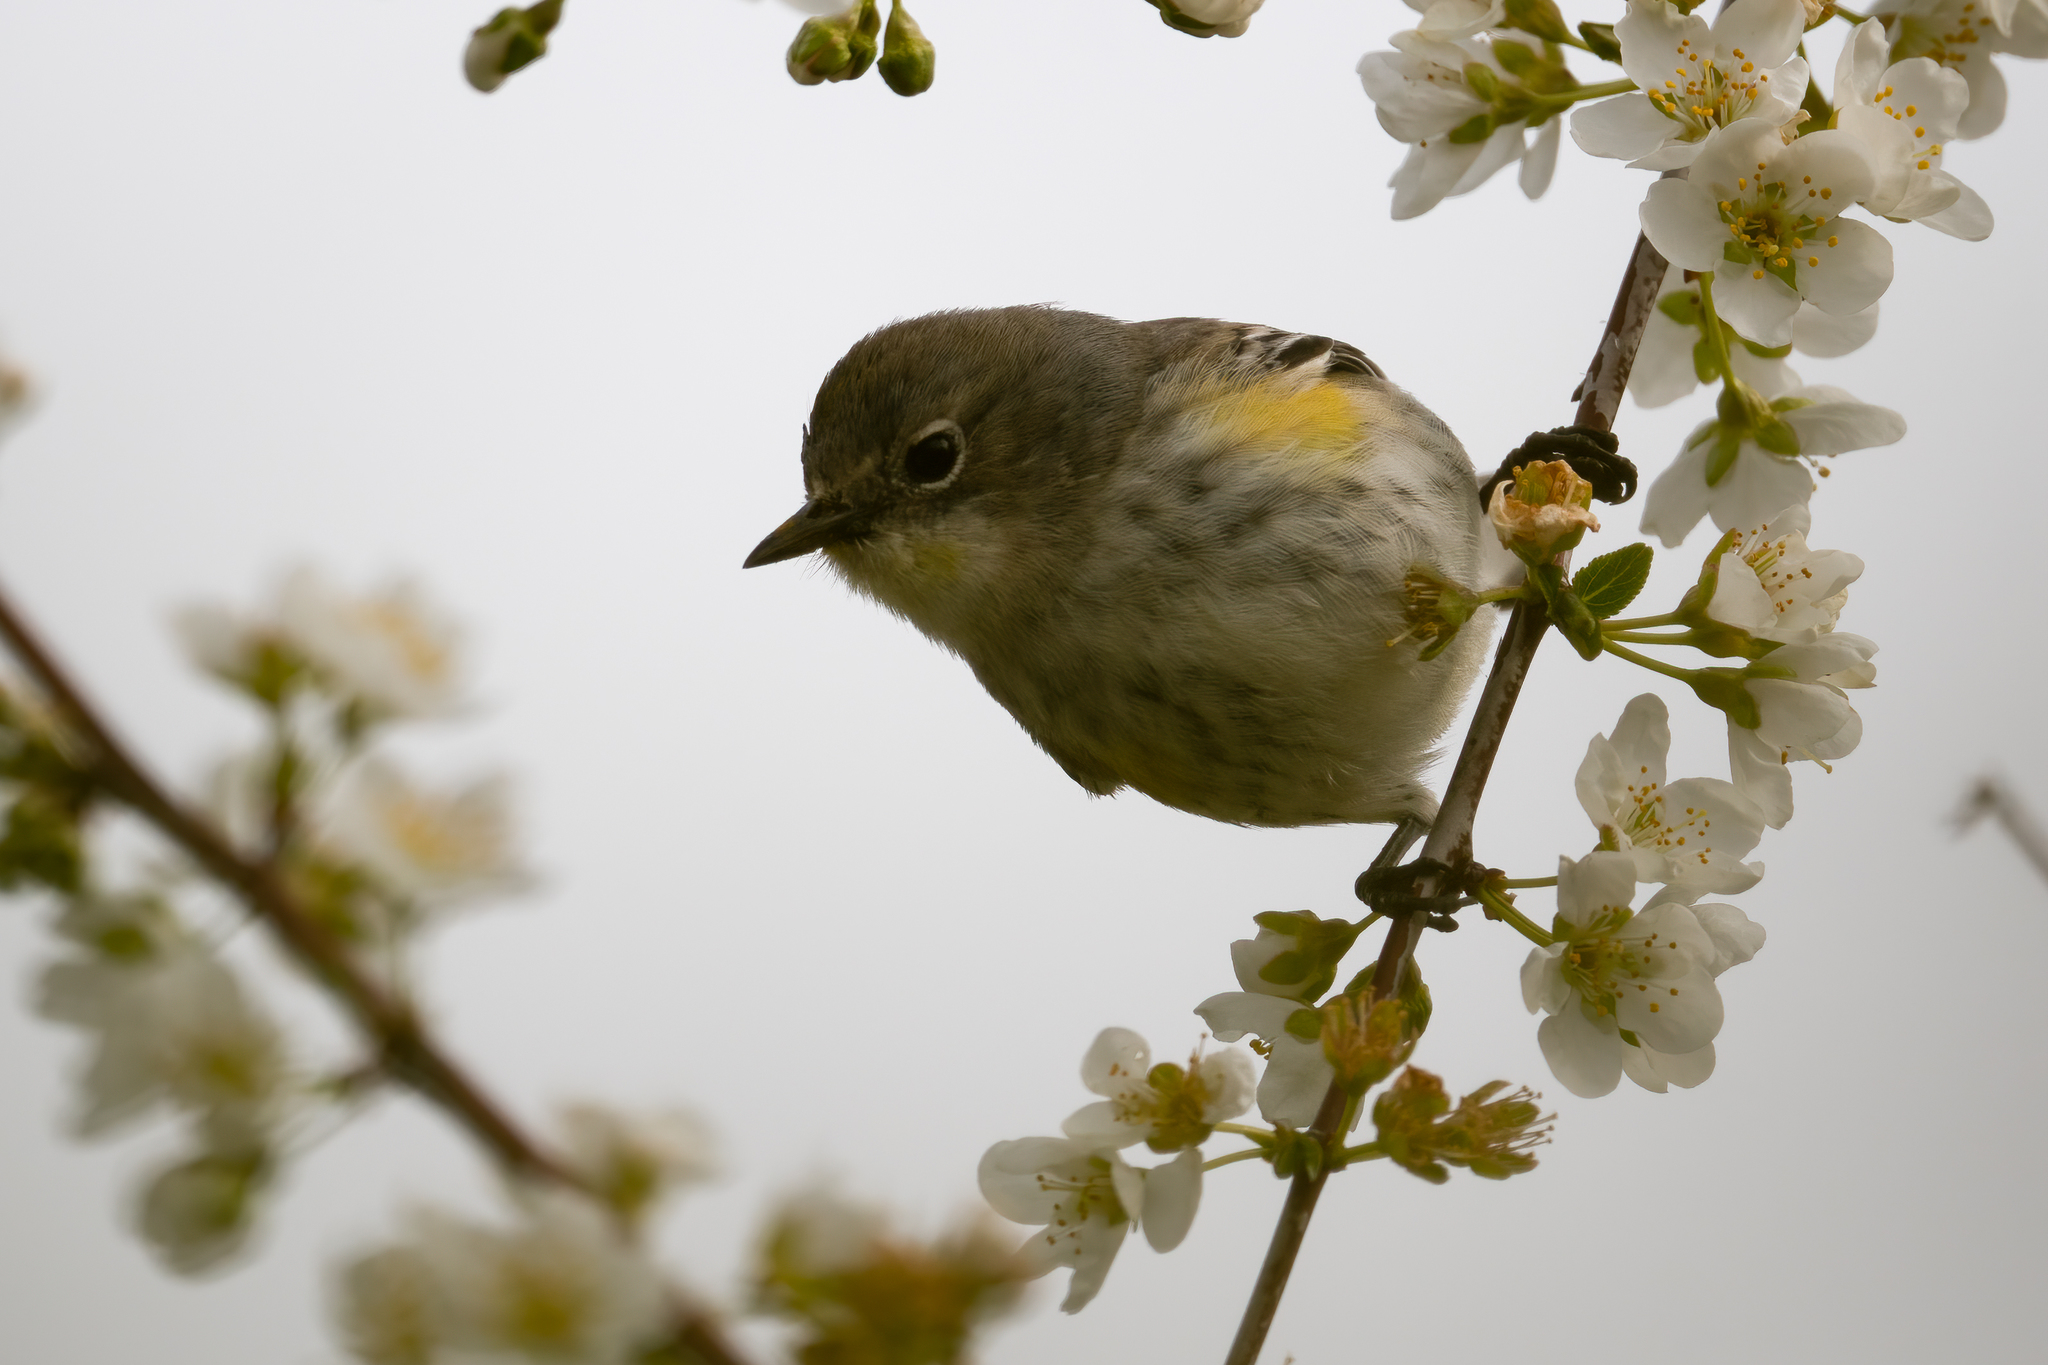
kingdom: Animalia
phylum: Chordata
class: Aves
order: Passeriformes
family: Parulidae
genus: Setophaga
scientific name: Setophaga coronata
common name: Myrtle warbler
